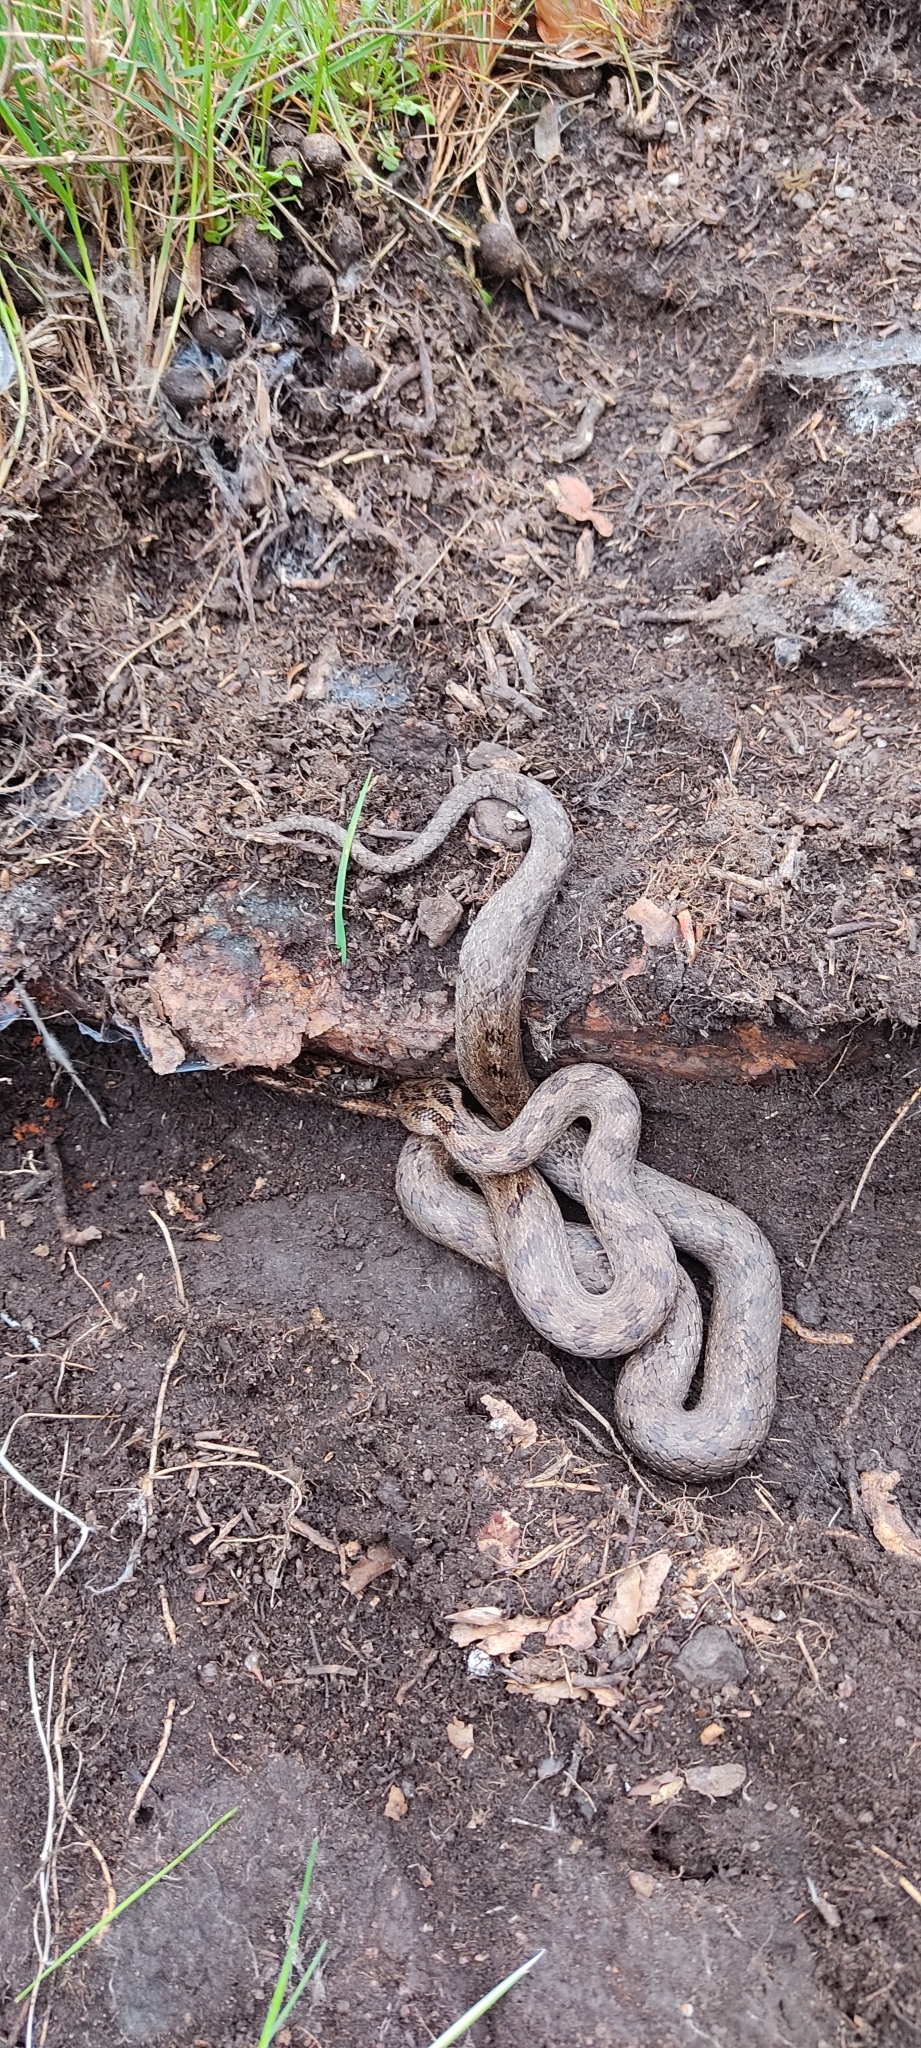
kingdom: Animalia
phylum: Chordata
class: Squamata
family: Colubridae
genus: Coronella
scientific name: Coronella girondica
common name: Southern smooth snake
